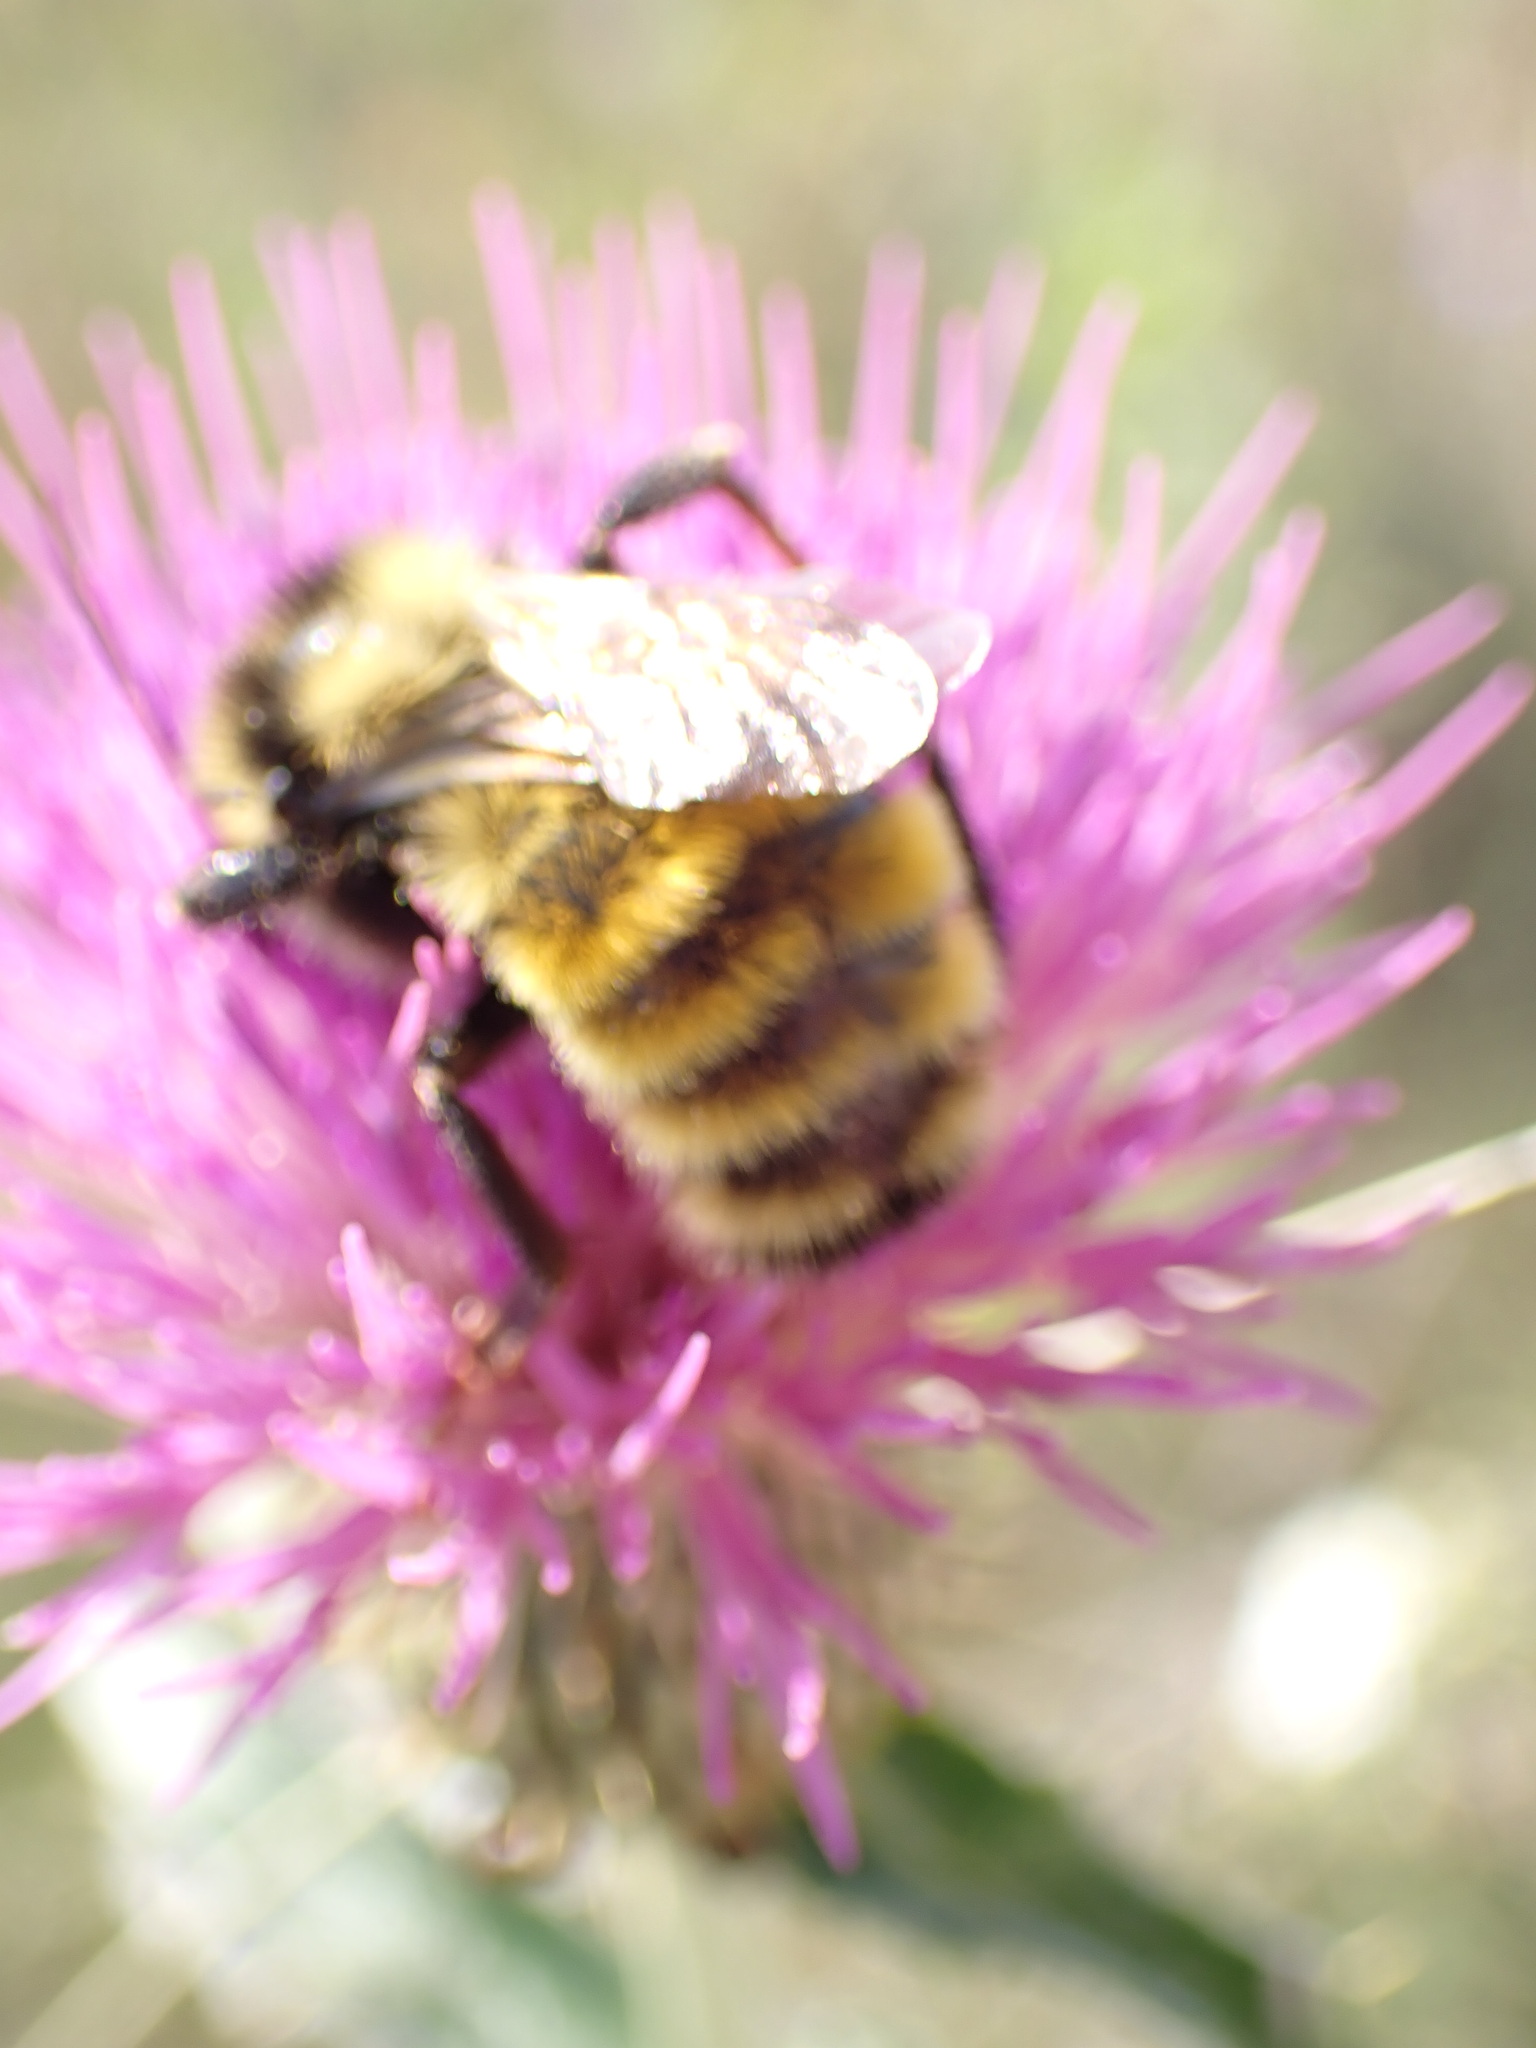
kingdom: Animalia
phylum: Arthropoda
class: Insecta
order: Hymenoptera
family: Apidae
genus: Bombus
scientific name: Bombus borealis
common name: Northern amber bumble bee
